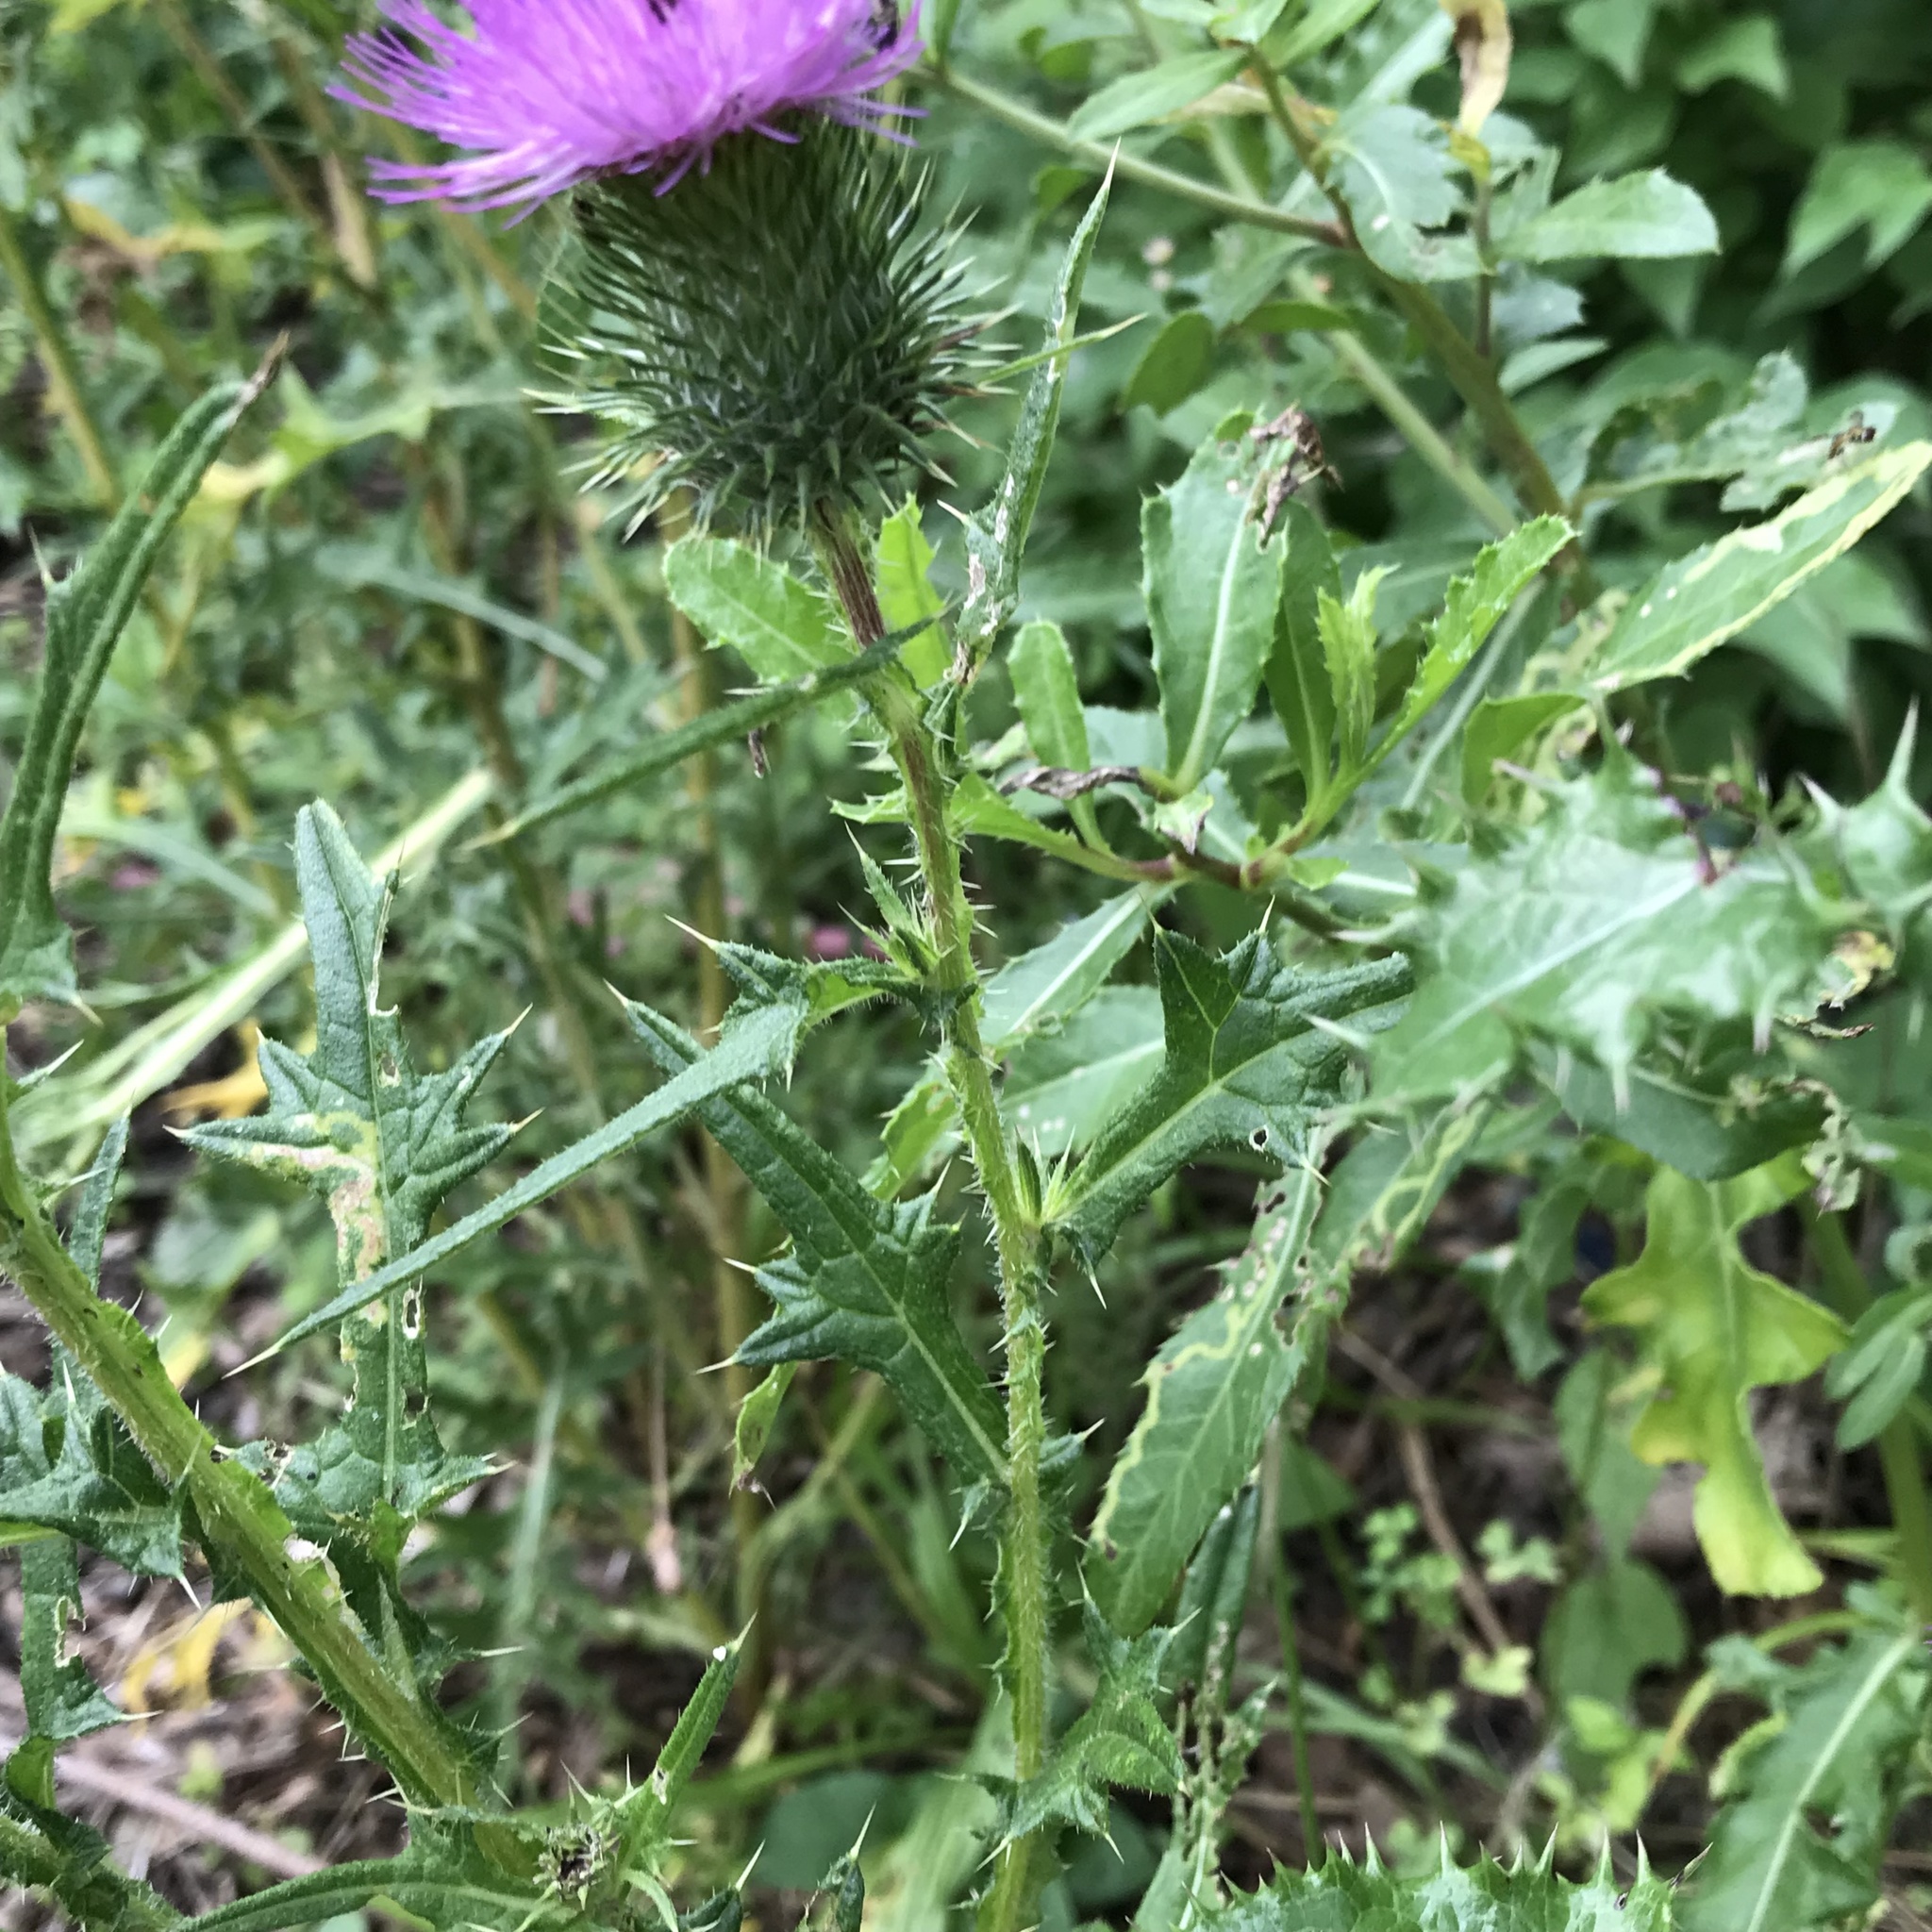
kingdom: Plantae
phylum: Tracheophyta
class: Magnoliopsida
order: Asterales
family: Asteraceae
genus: Cirsium
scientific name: Cirsium vulgare
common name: Bull thistle
